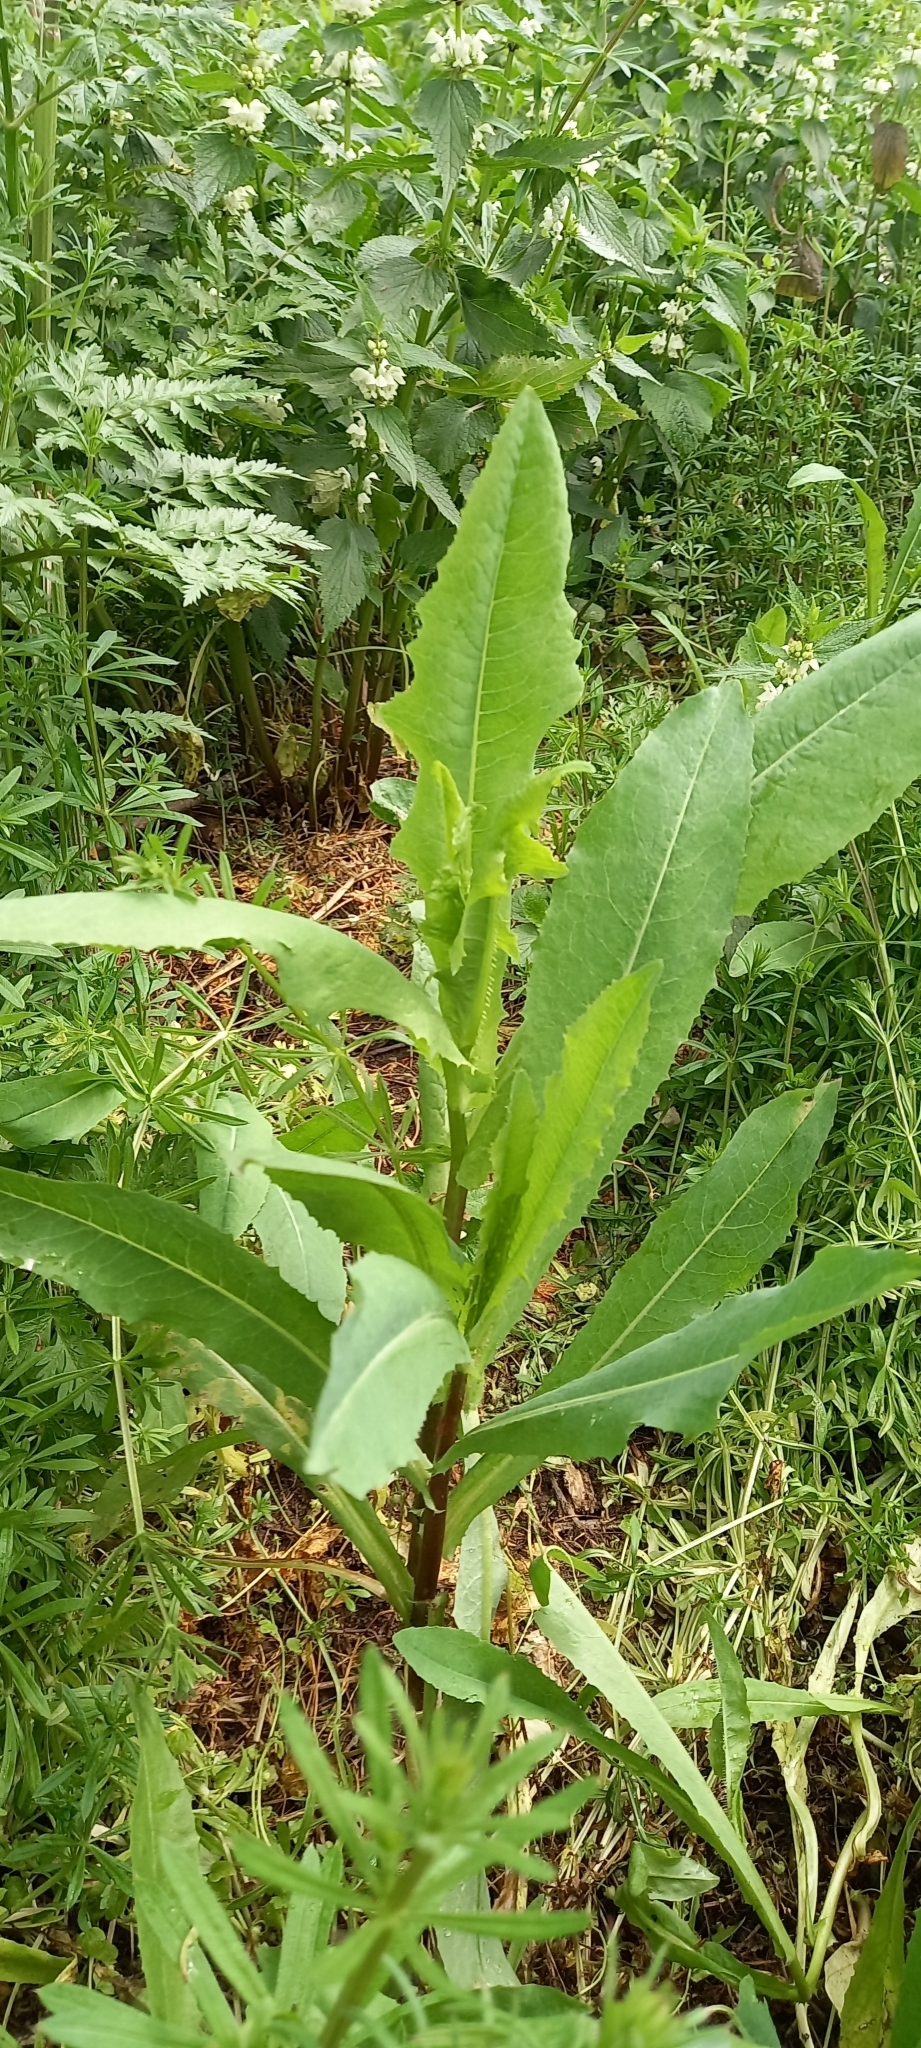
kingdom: Plantae
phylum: Tracheophyta
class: Magnoliopsida
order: Asterales
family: Asteraceae
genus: Lactuca
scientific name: Lactuca serriola
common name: Prickly lettuce
